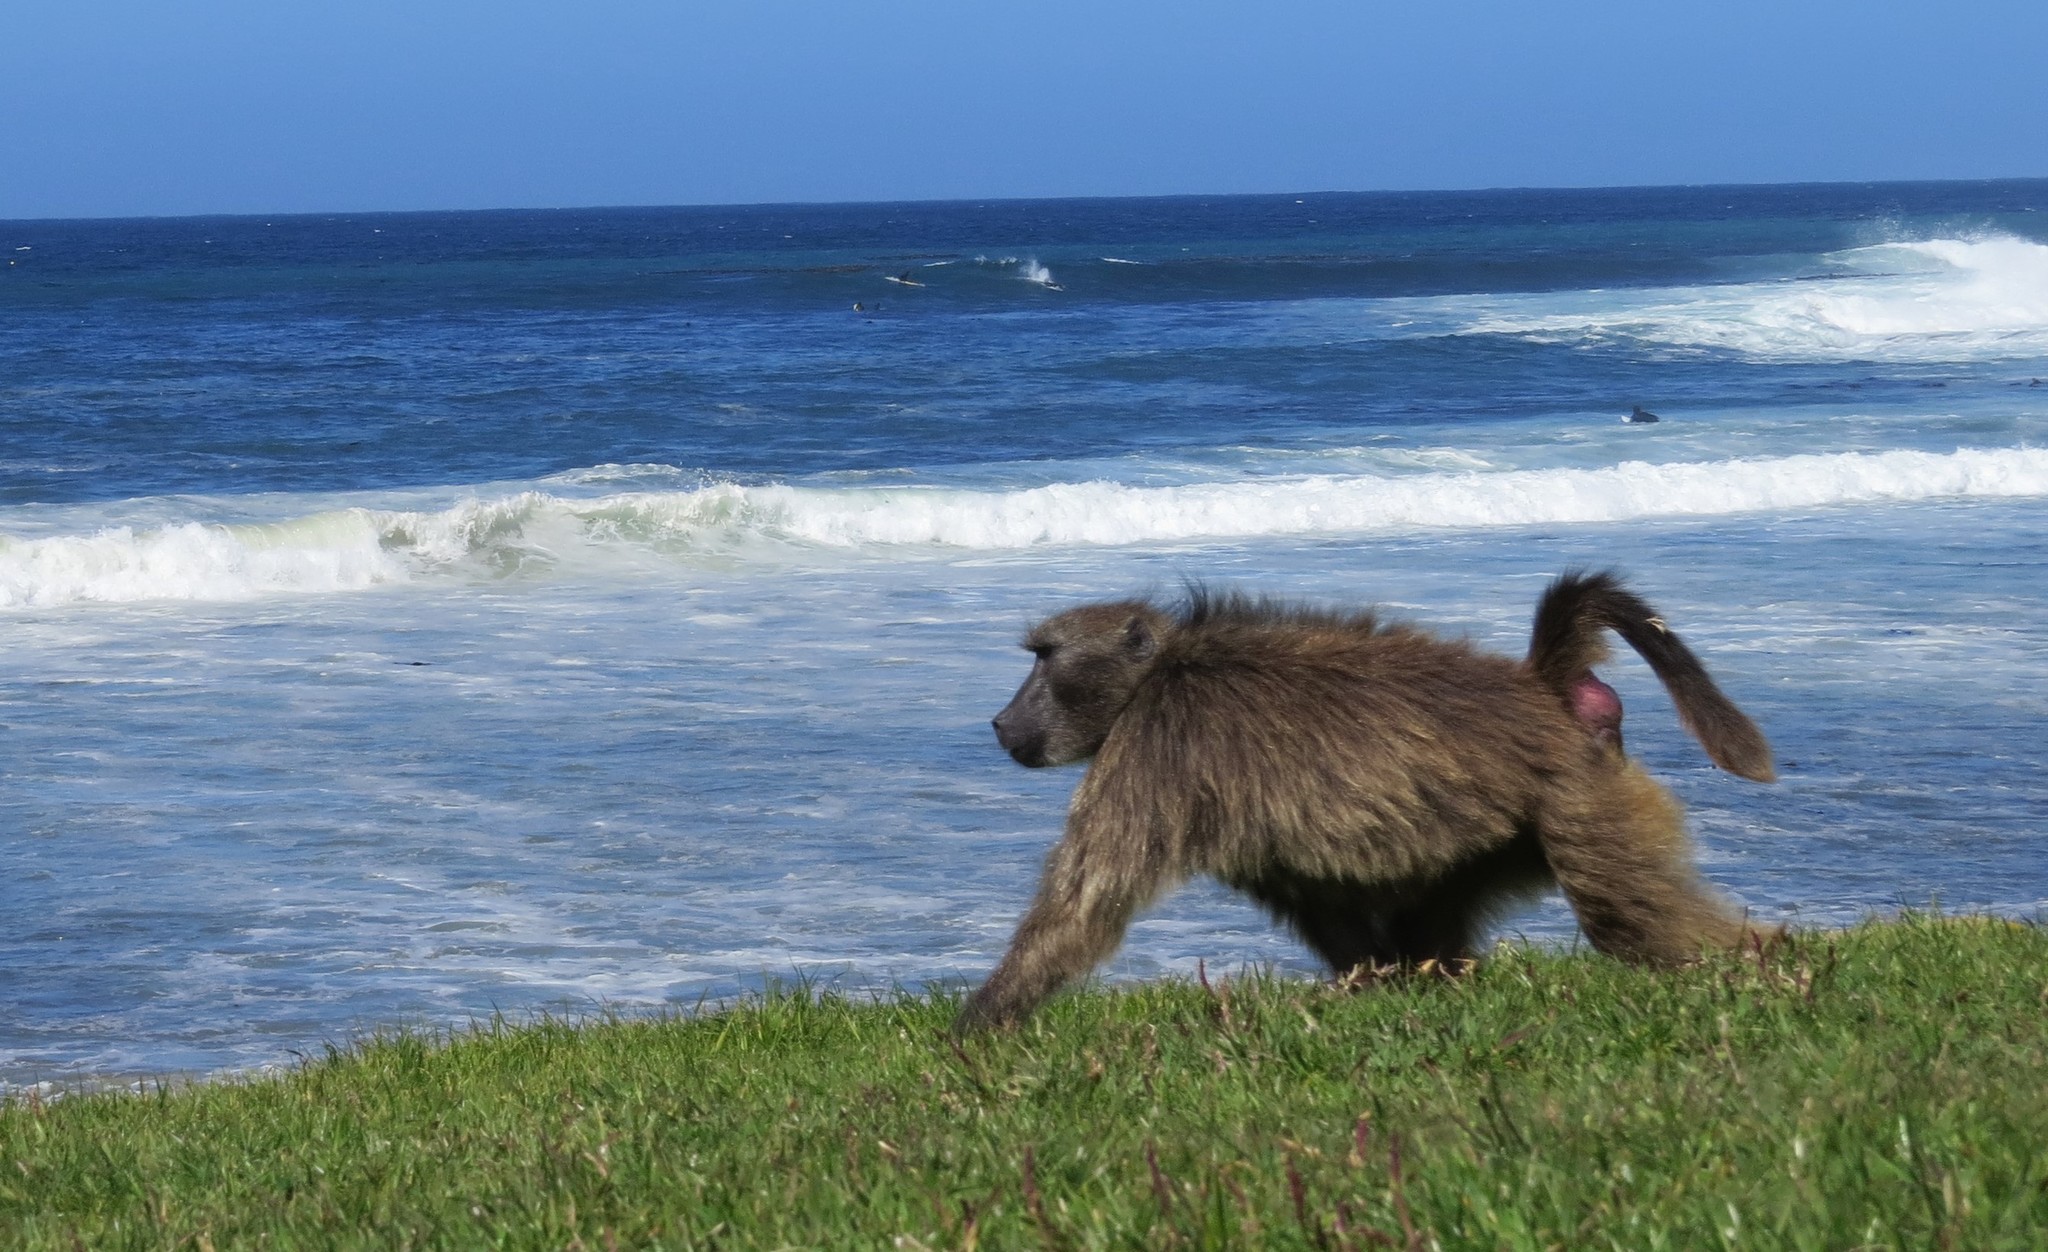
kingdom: Animalia
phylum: Chordata
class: Mammalia
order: Primates
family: Cercopithecidae
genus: Papio
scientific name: Papio ursinus
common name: Chacma baboon
